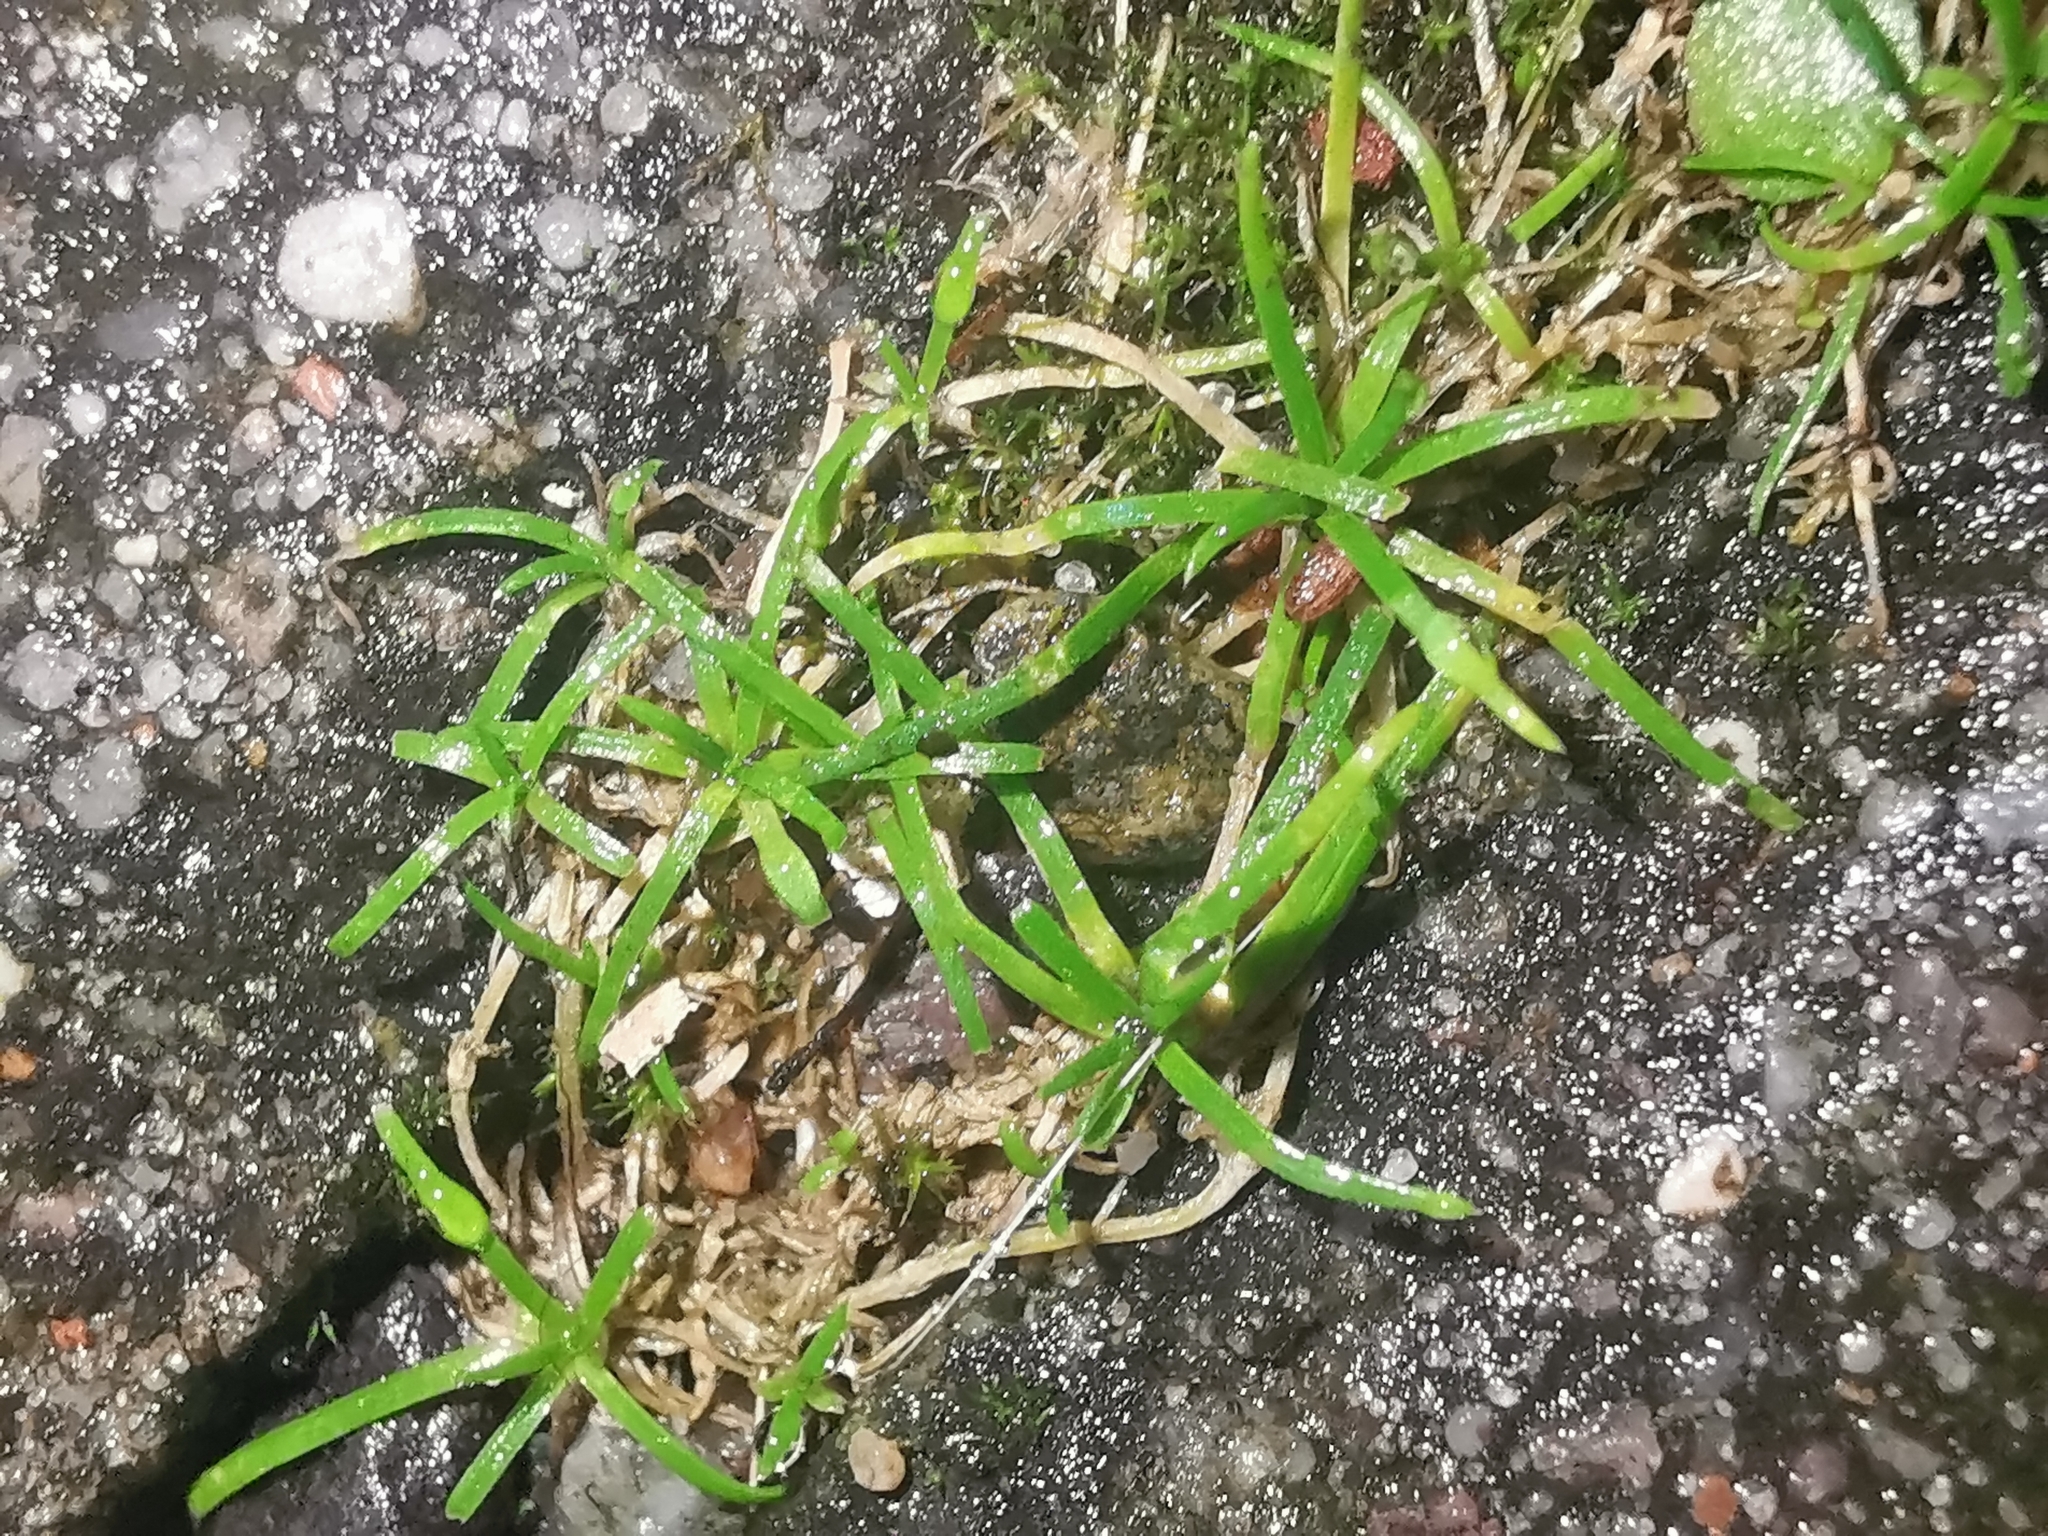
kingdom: Plantae
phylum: Tracheophyta
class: Magnoliopsida
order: Caryophyllales
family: Caryophyllaceae
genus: Sagina
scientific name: Sagina procumbens
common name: Procumbent pearlwort
